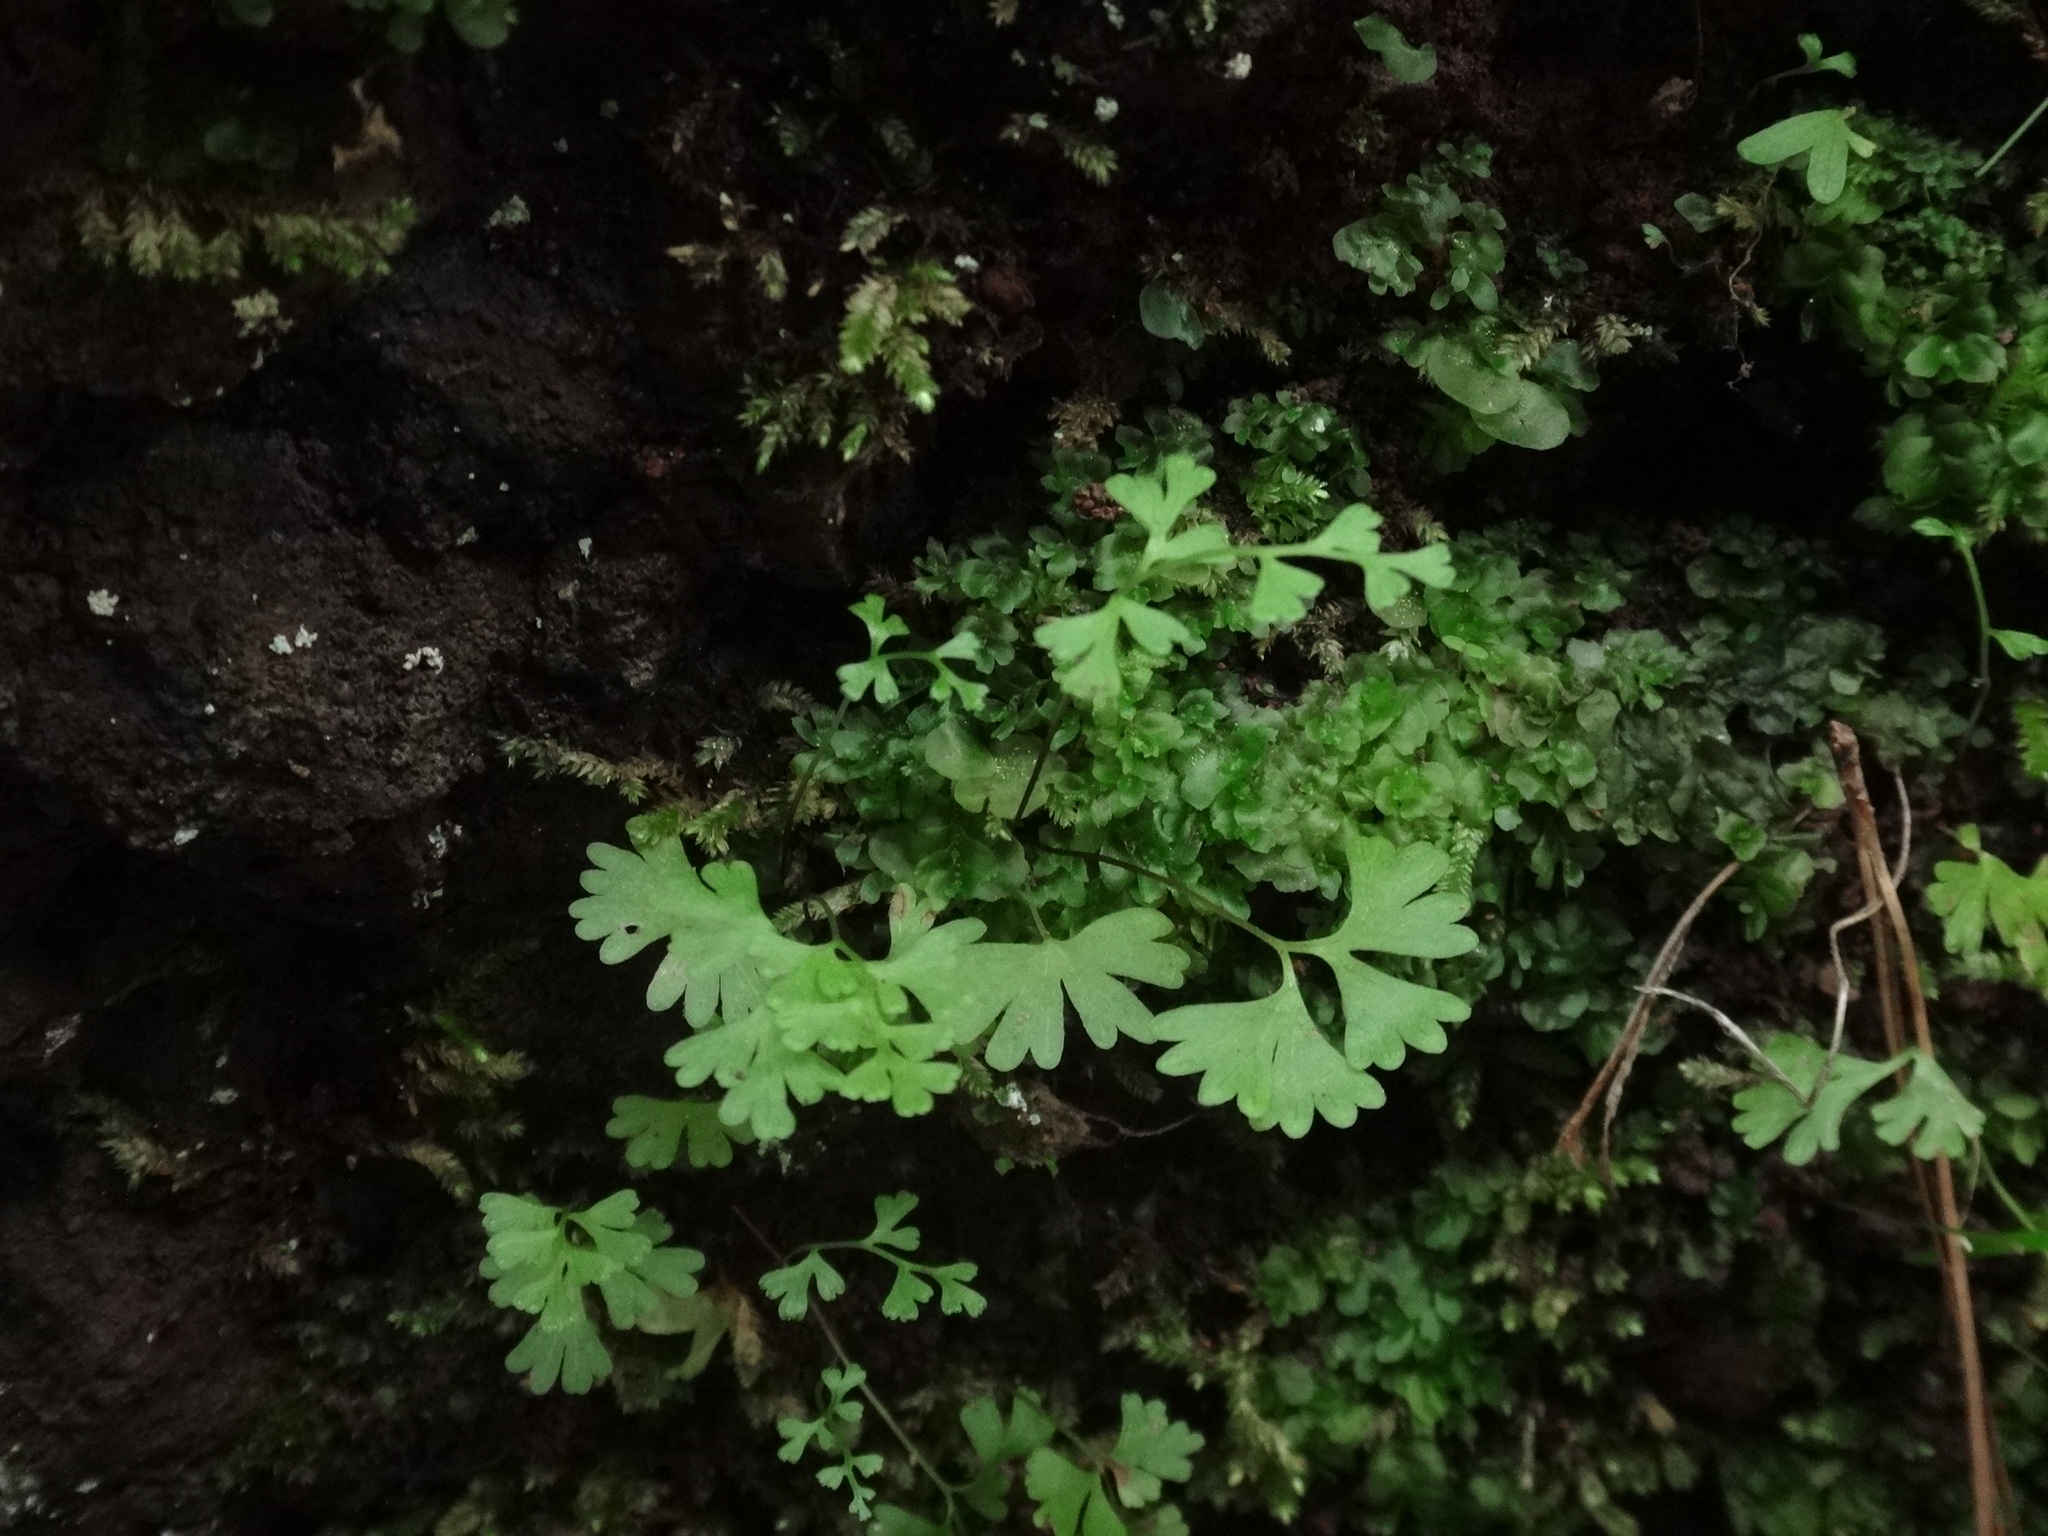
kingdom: Plantae
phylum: Tracheophyta
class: Polypodiopsida
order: Polypodiales
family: Pteridaceae
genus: Anogramma
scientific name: Anogramma leptophylla
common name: Jersey fern
